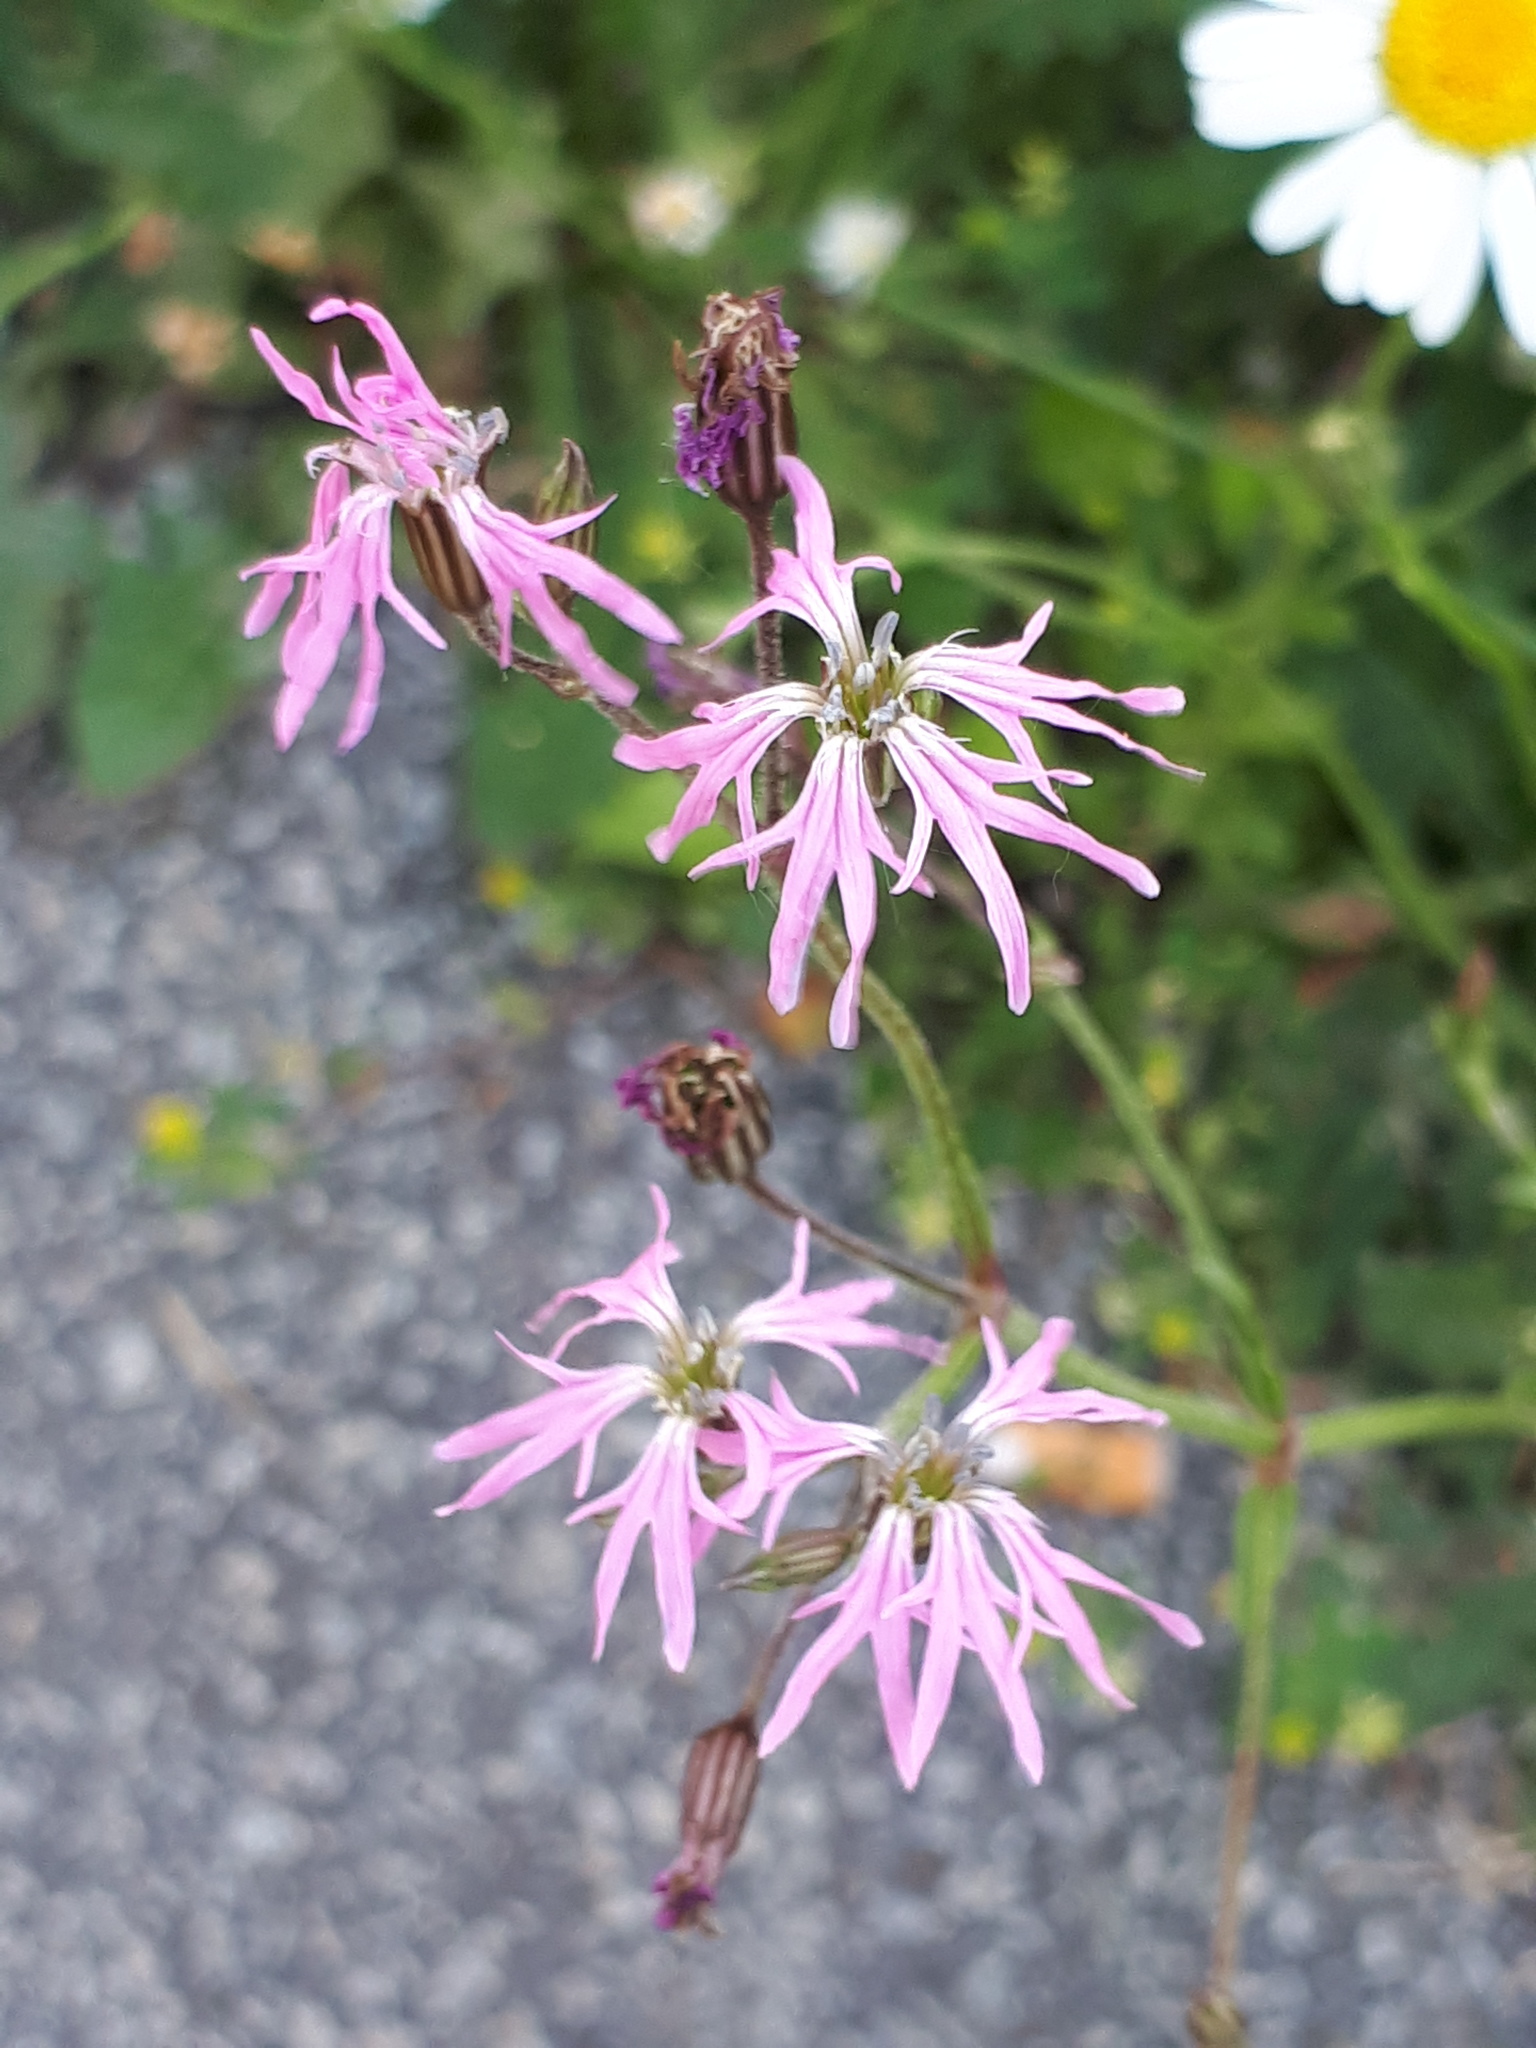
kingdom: Plantae
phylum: Tracheophyta
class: Magnoliopsida
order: Caryophyllales
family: Caryophyllaceae
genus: Silene
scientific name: Silene flos-cuculi
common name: Ragged-robin
